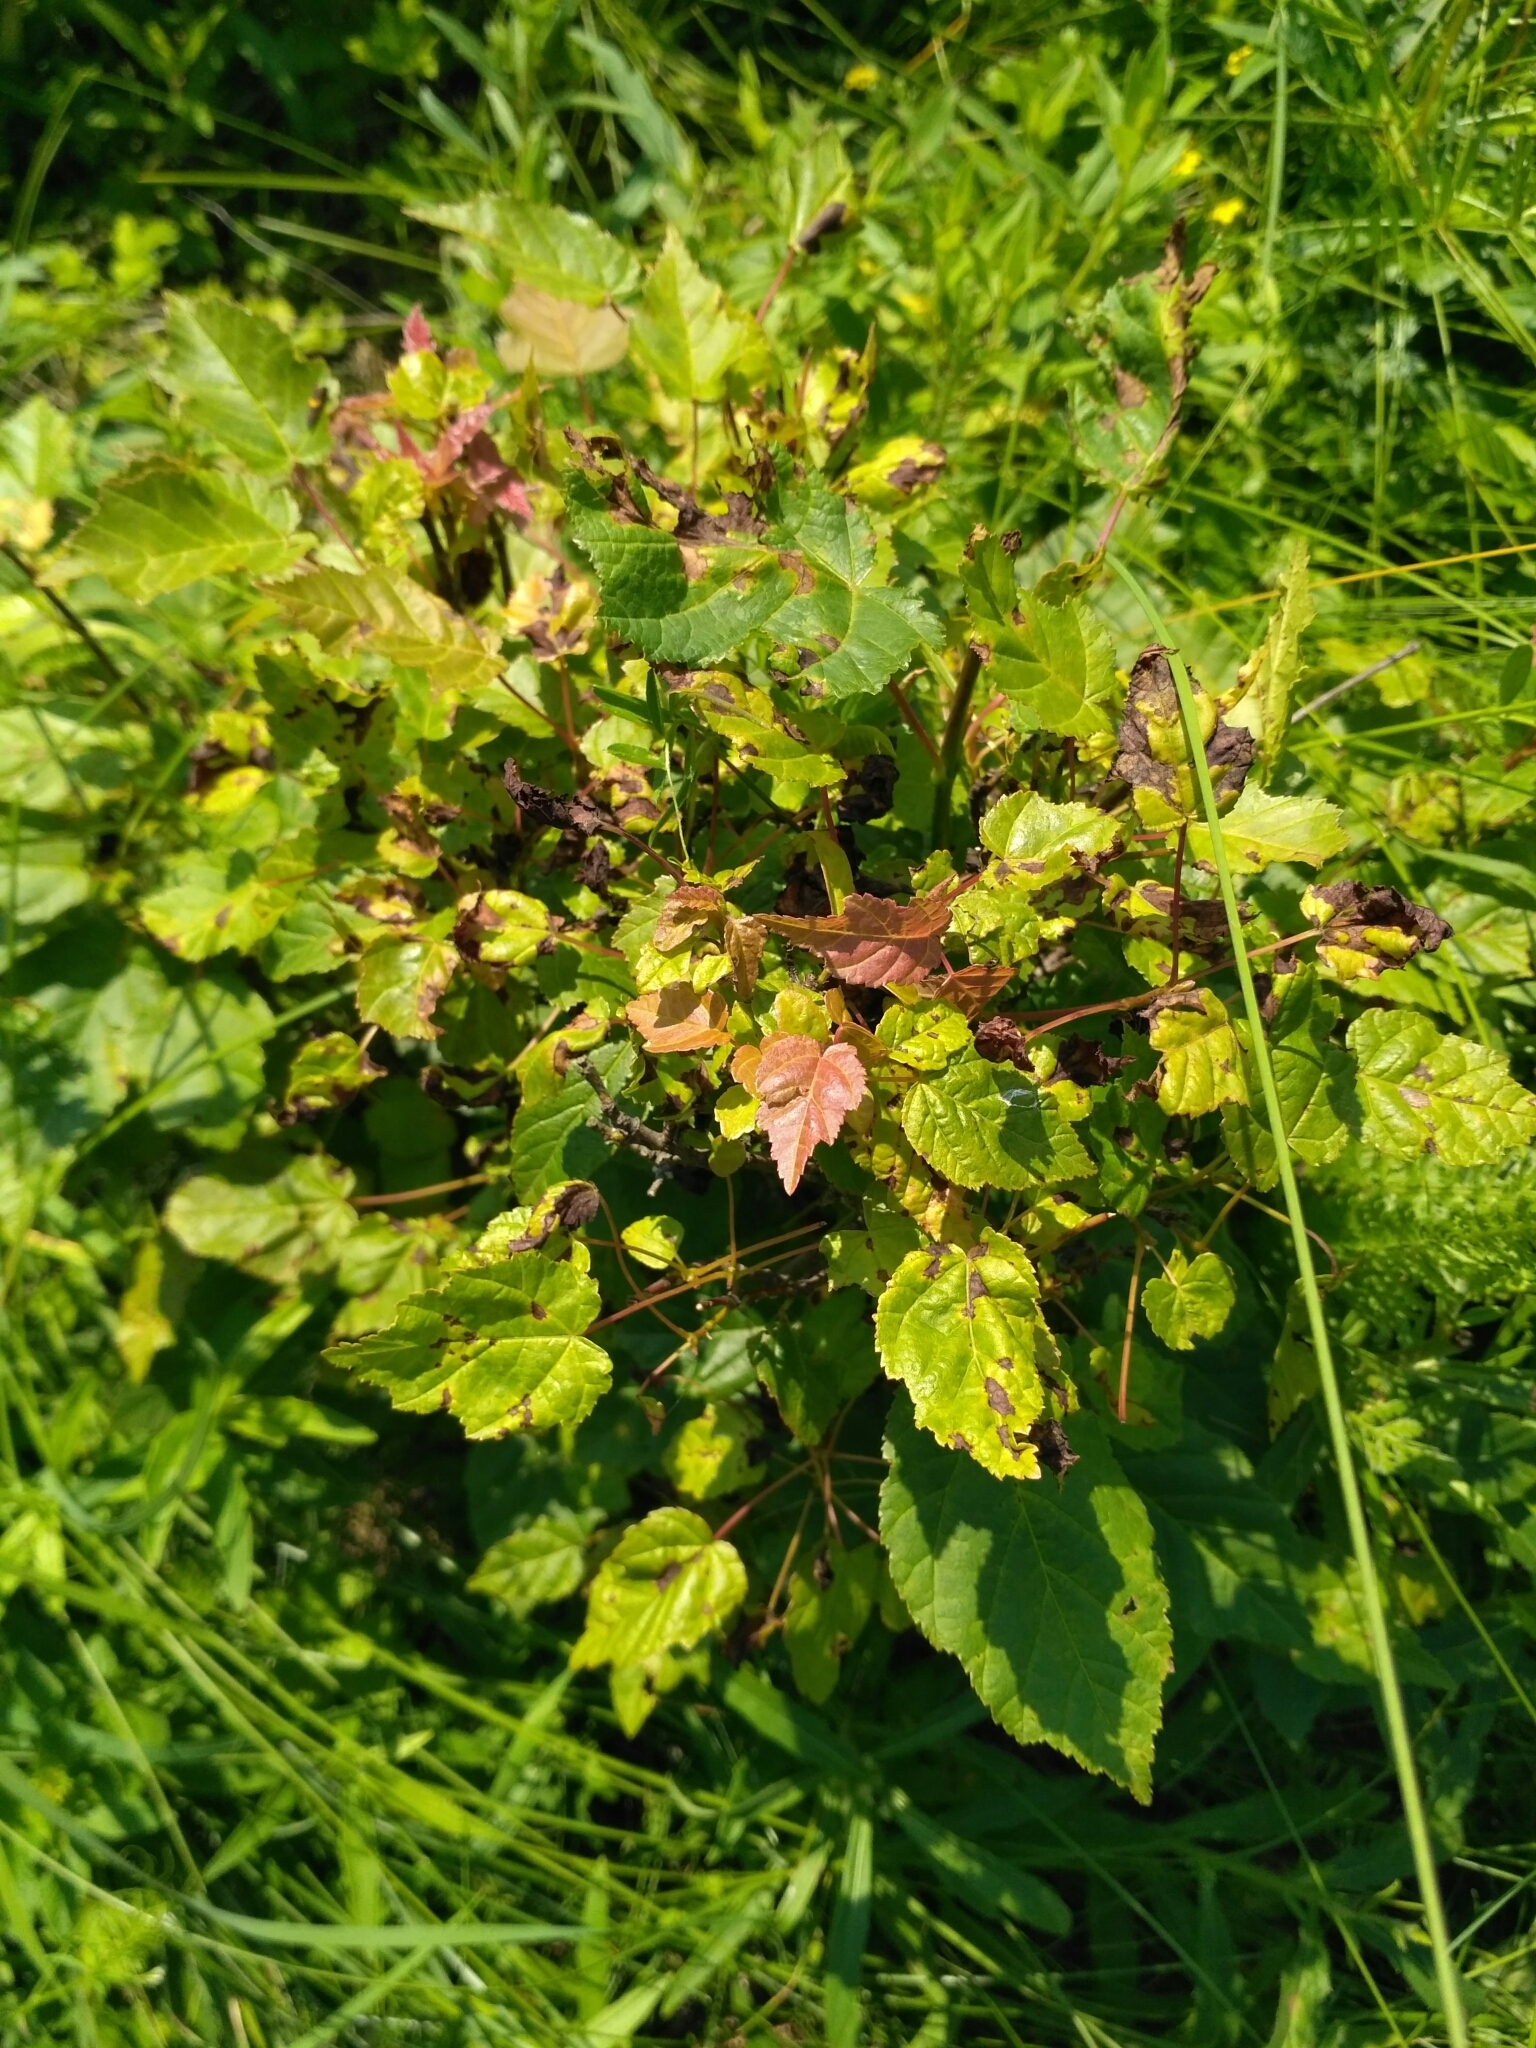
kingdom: Plantae
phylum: Tracheophyta
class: Magnoliopsida
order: Sapindales
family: Sapindaceae
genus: Acer
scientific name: Acer tataricum
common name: Tartar maple
